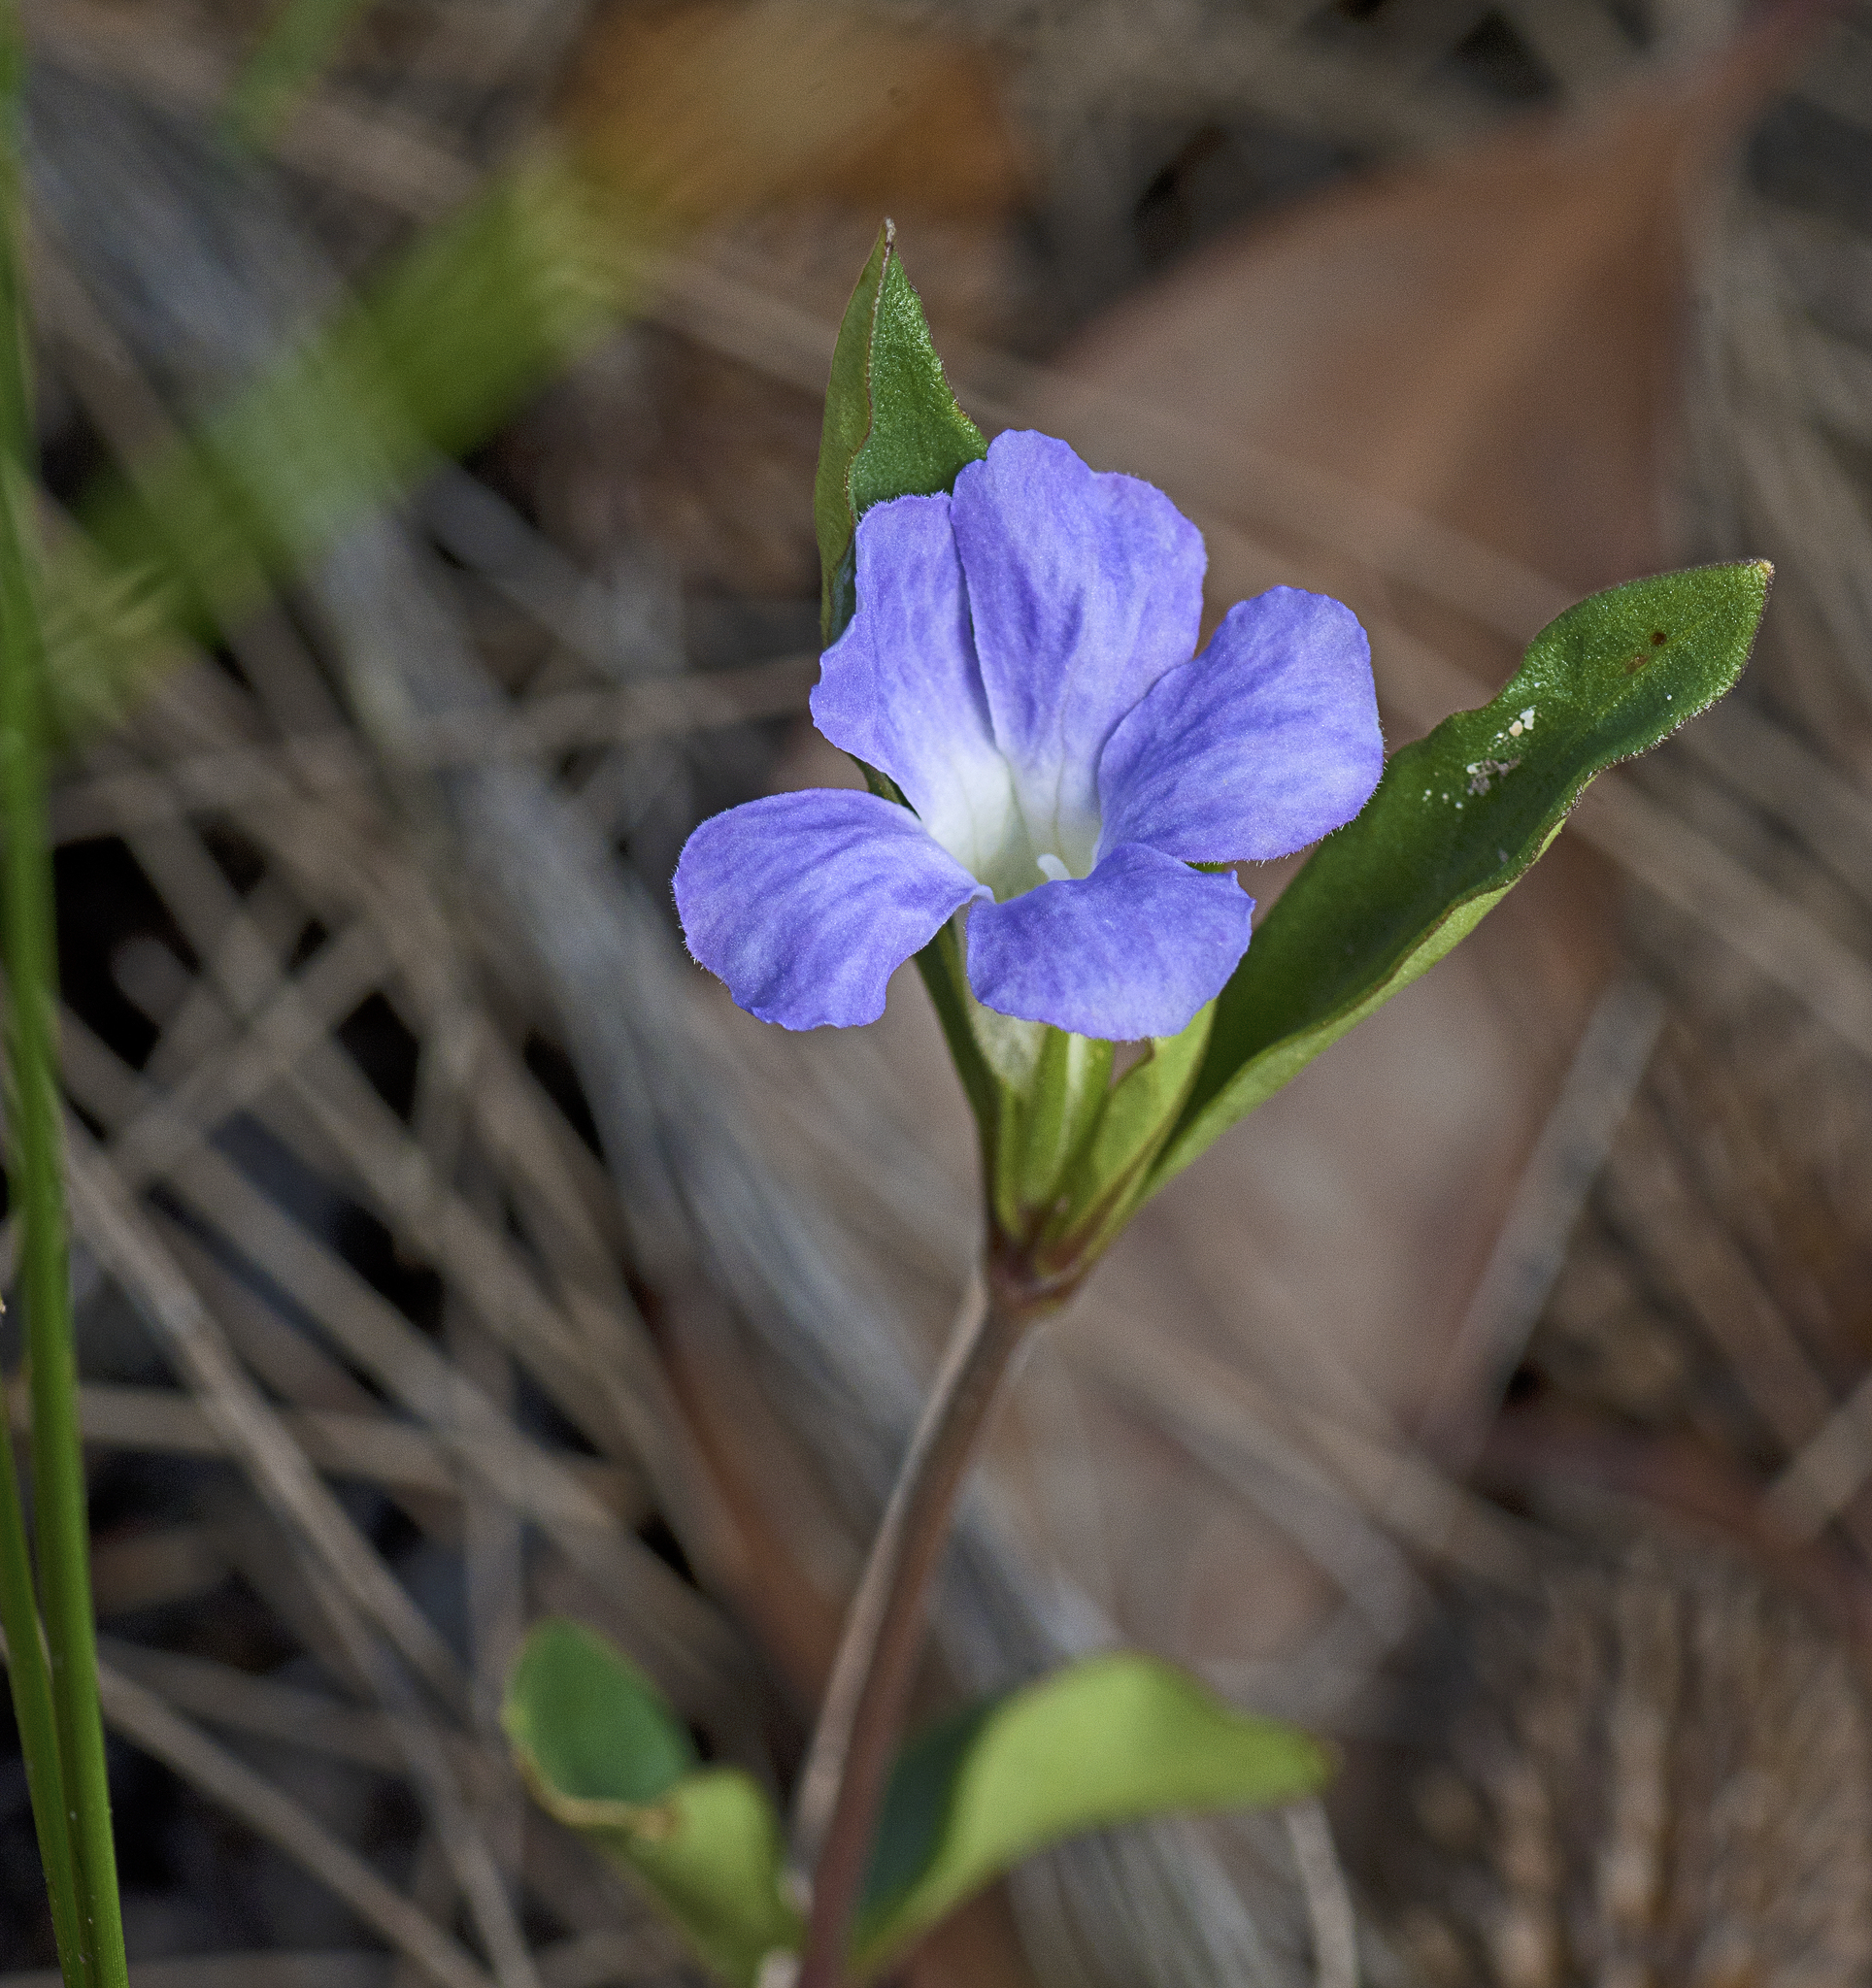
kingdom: Plantae
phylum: Tracheophyta
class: Magnoliopsida
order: Lamiales
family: Acanthaceae
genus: Brunoniella
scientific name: Brunoniella australis
